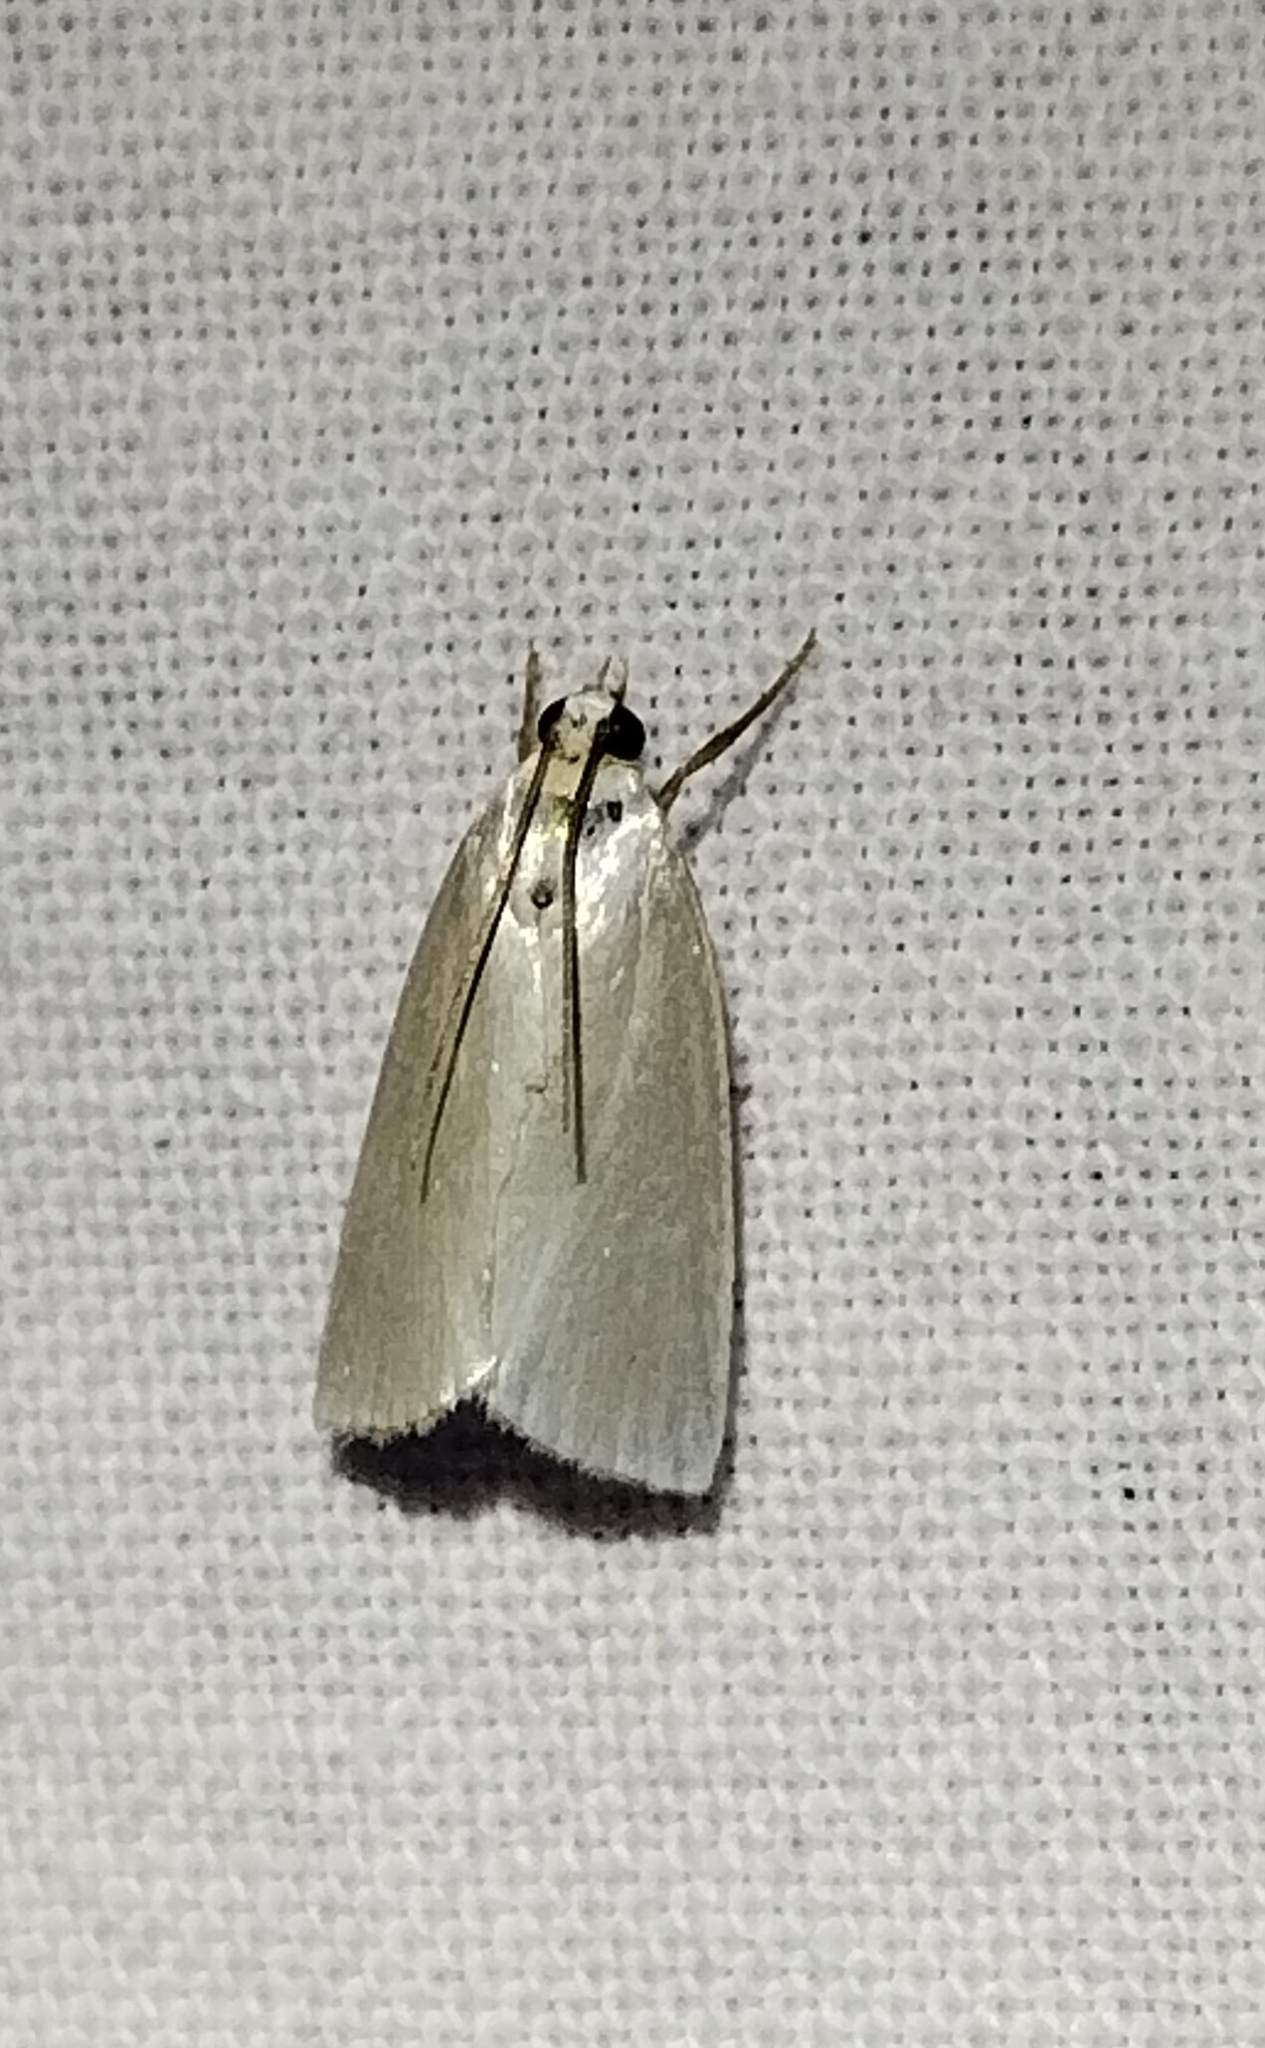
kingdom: Animalia
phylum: Arthropoda
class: Insecta
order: Lepidoptera
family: Crambidae
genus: Argyria
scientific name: Argyria nivalis
